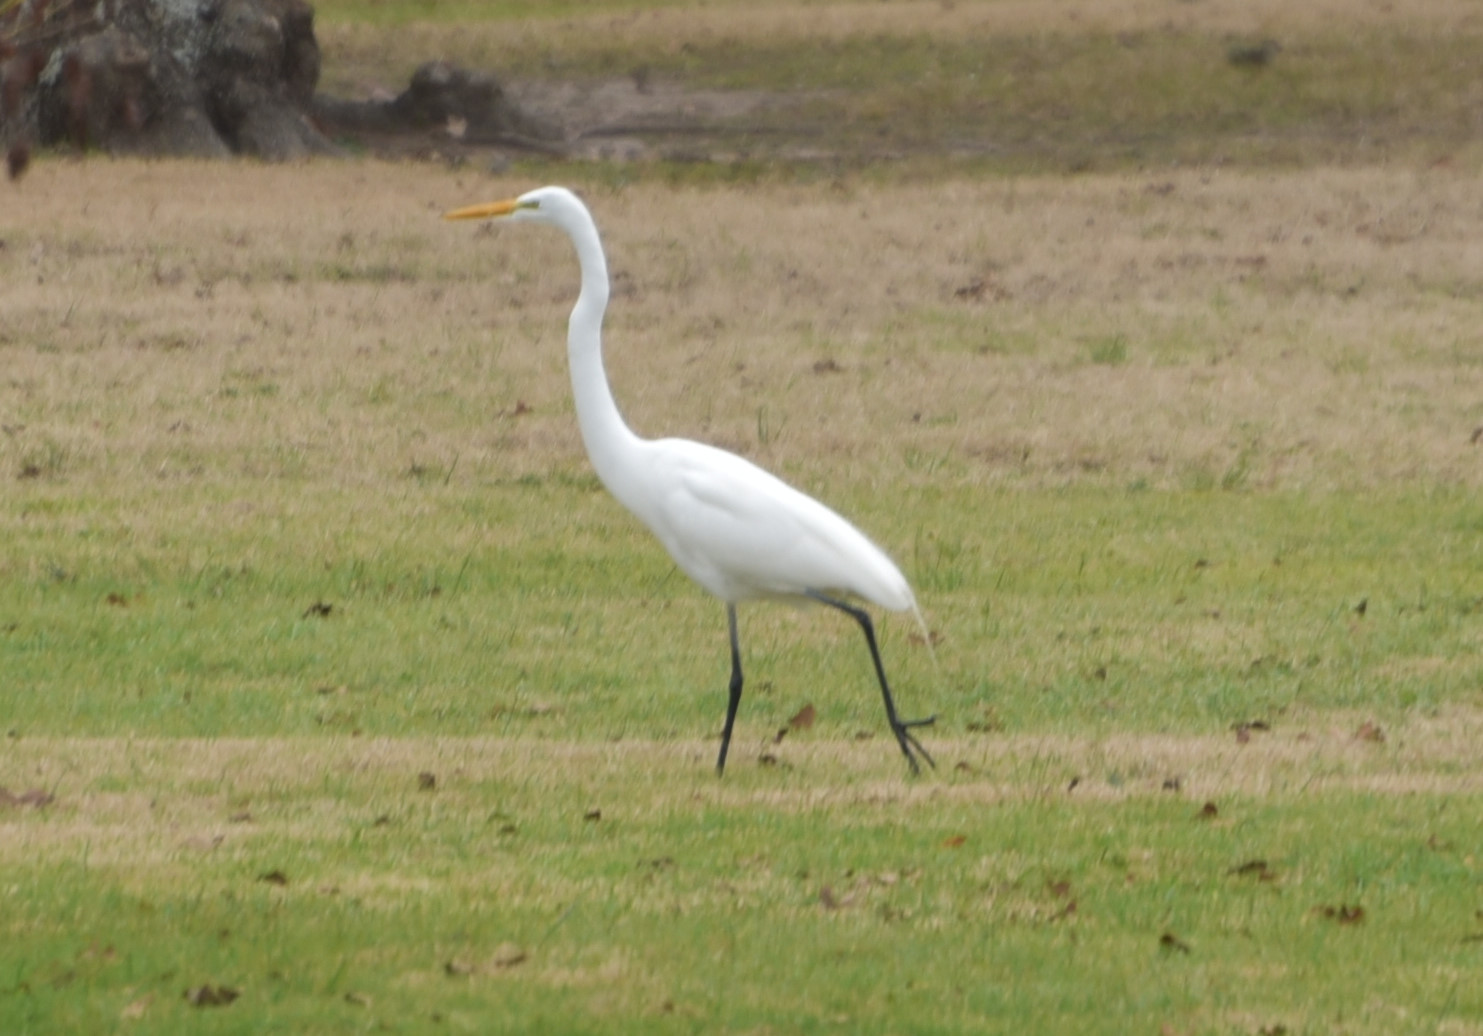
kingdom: Animalia
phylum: Chordata
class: Aves
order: Pelecaniformes
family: Ardeidae
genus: Ardea
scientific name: Ardea alba
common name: Great egret
